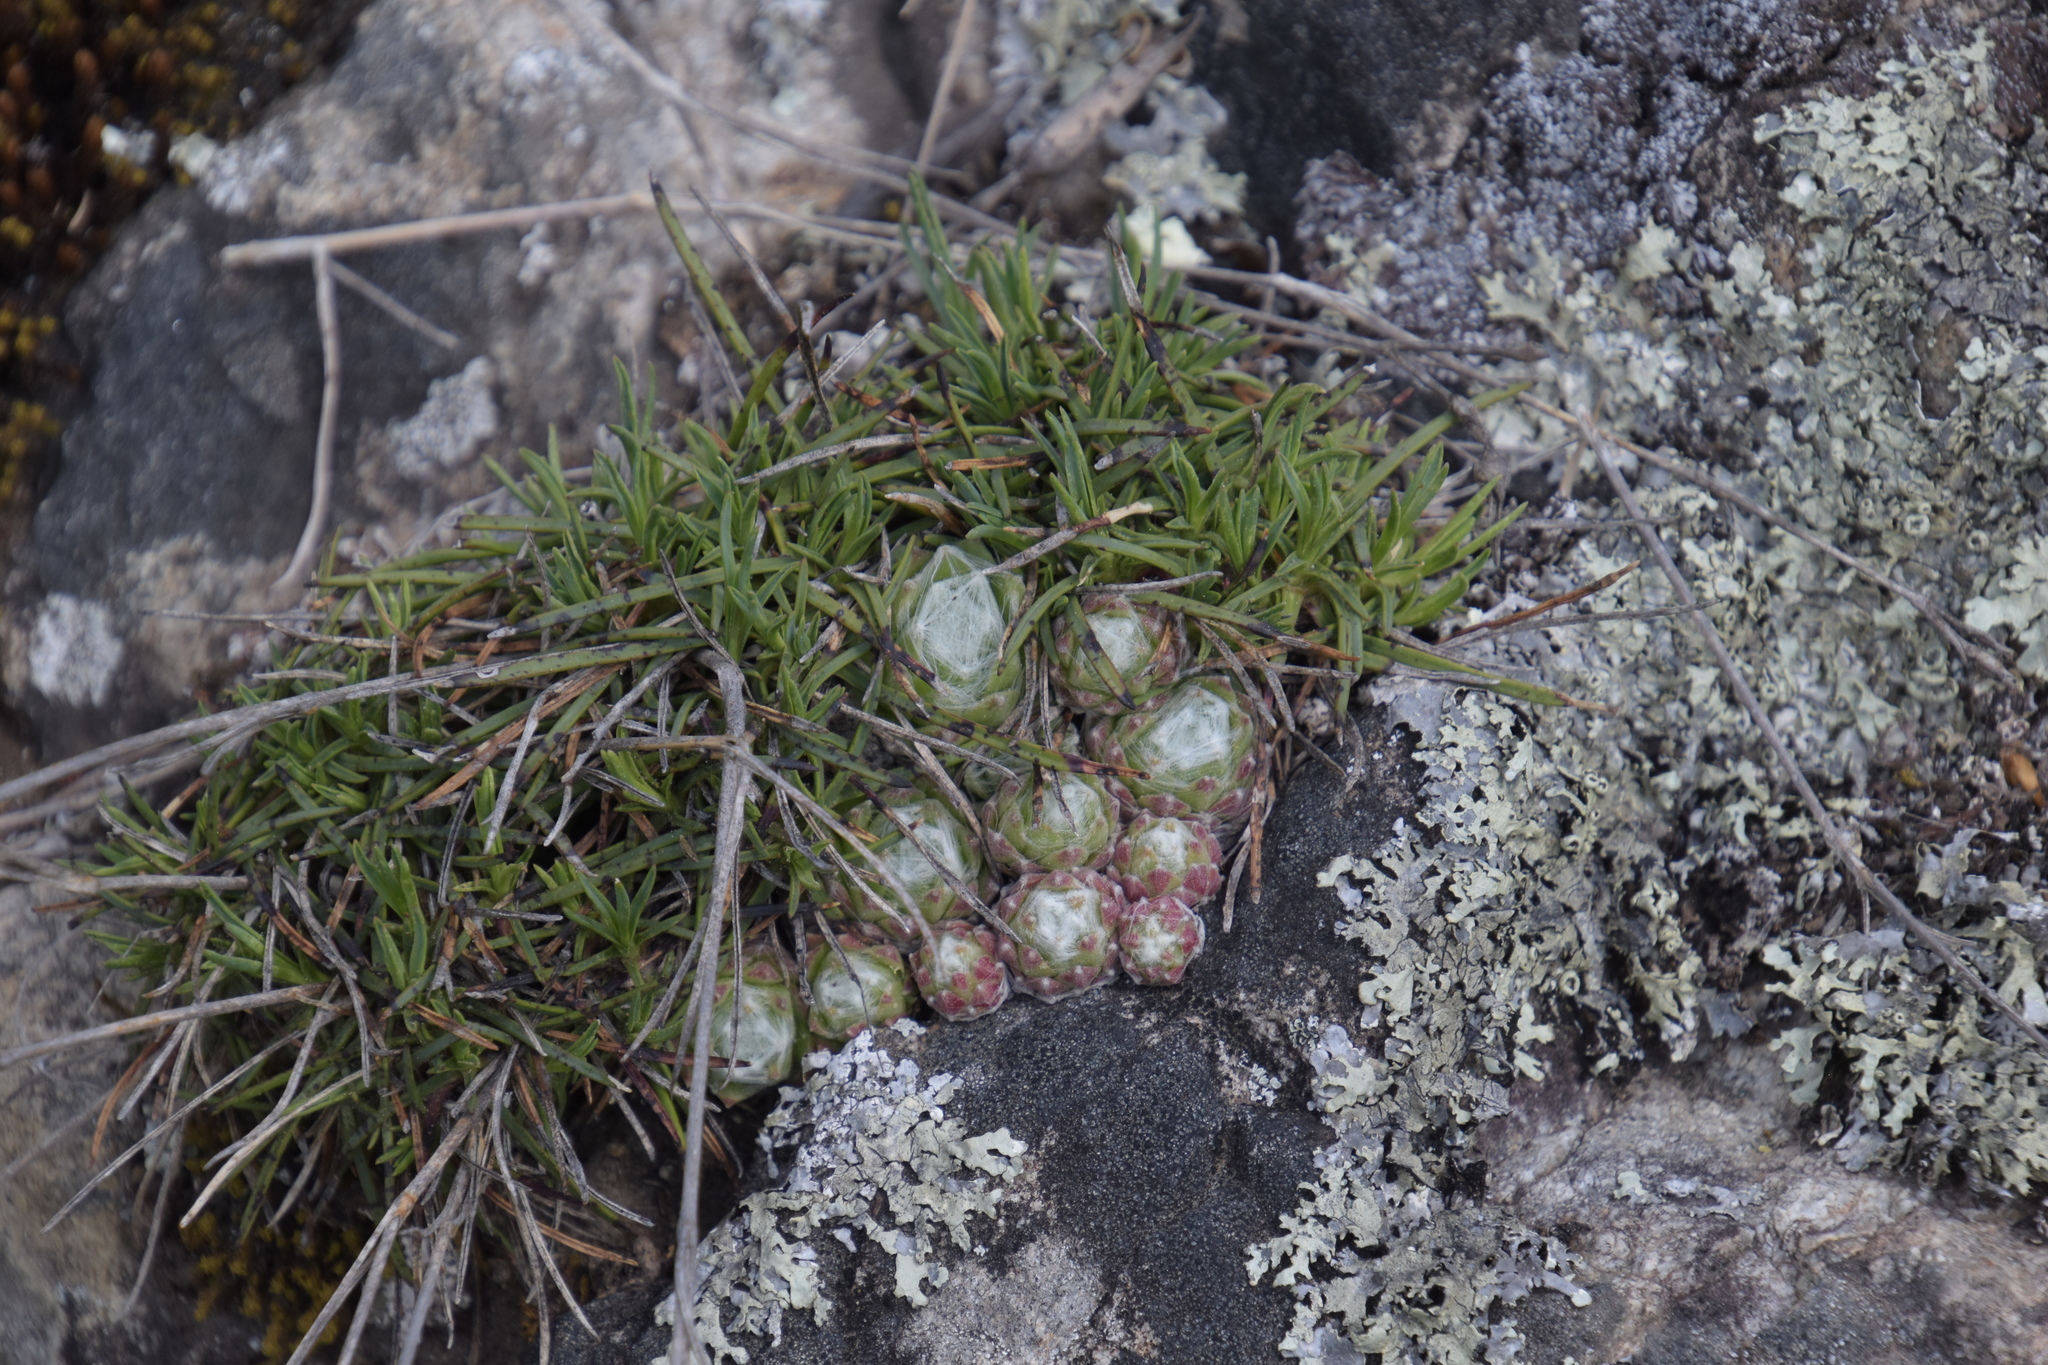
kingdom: Plantae
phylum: Tracheophyta
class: Magnoliopsida
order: Saxifragales
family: Crassulaceae
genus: Sempervivum
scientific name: Sempervivum arachnoideum
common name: Cobweb house-leek
